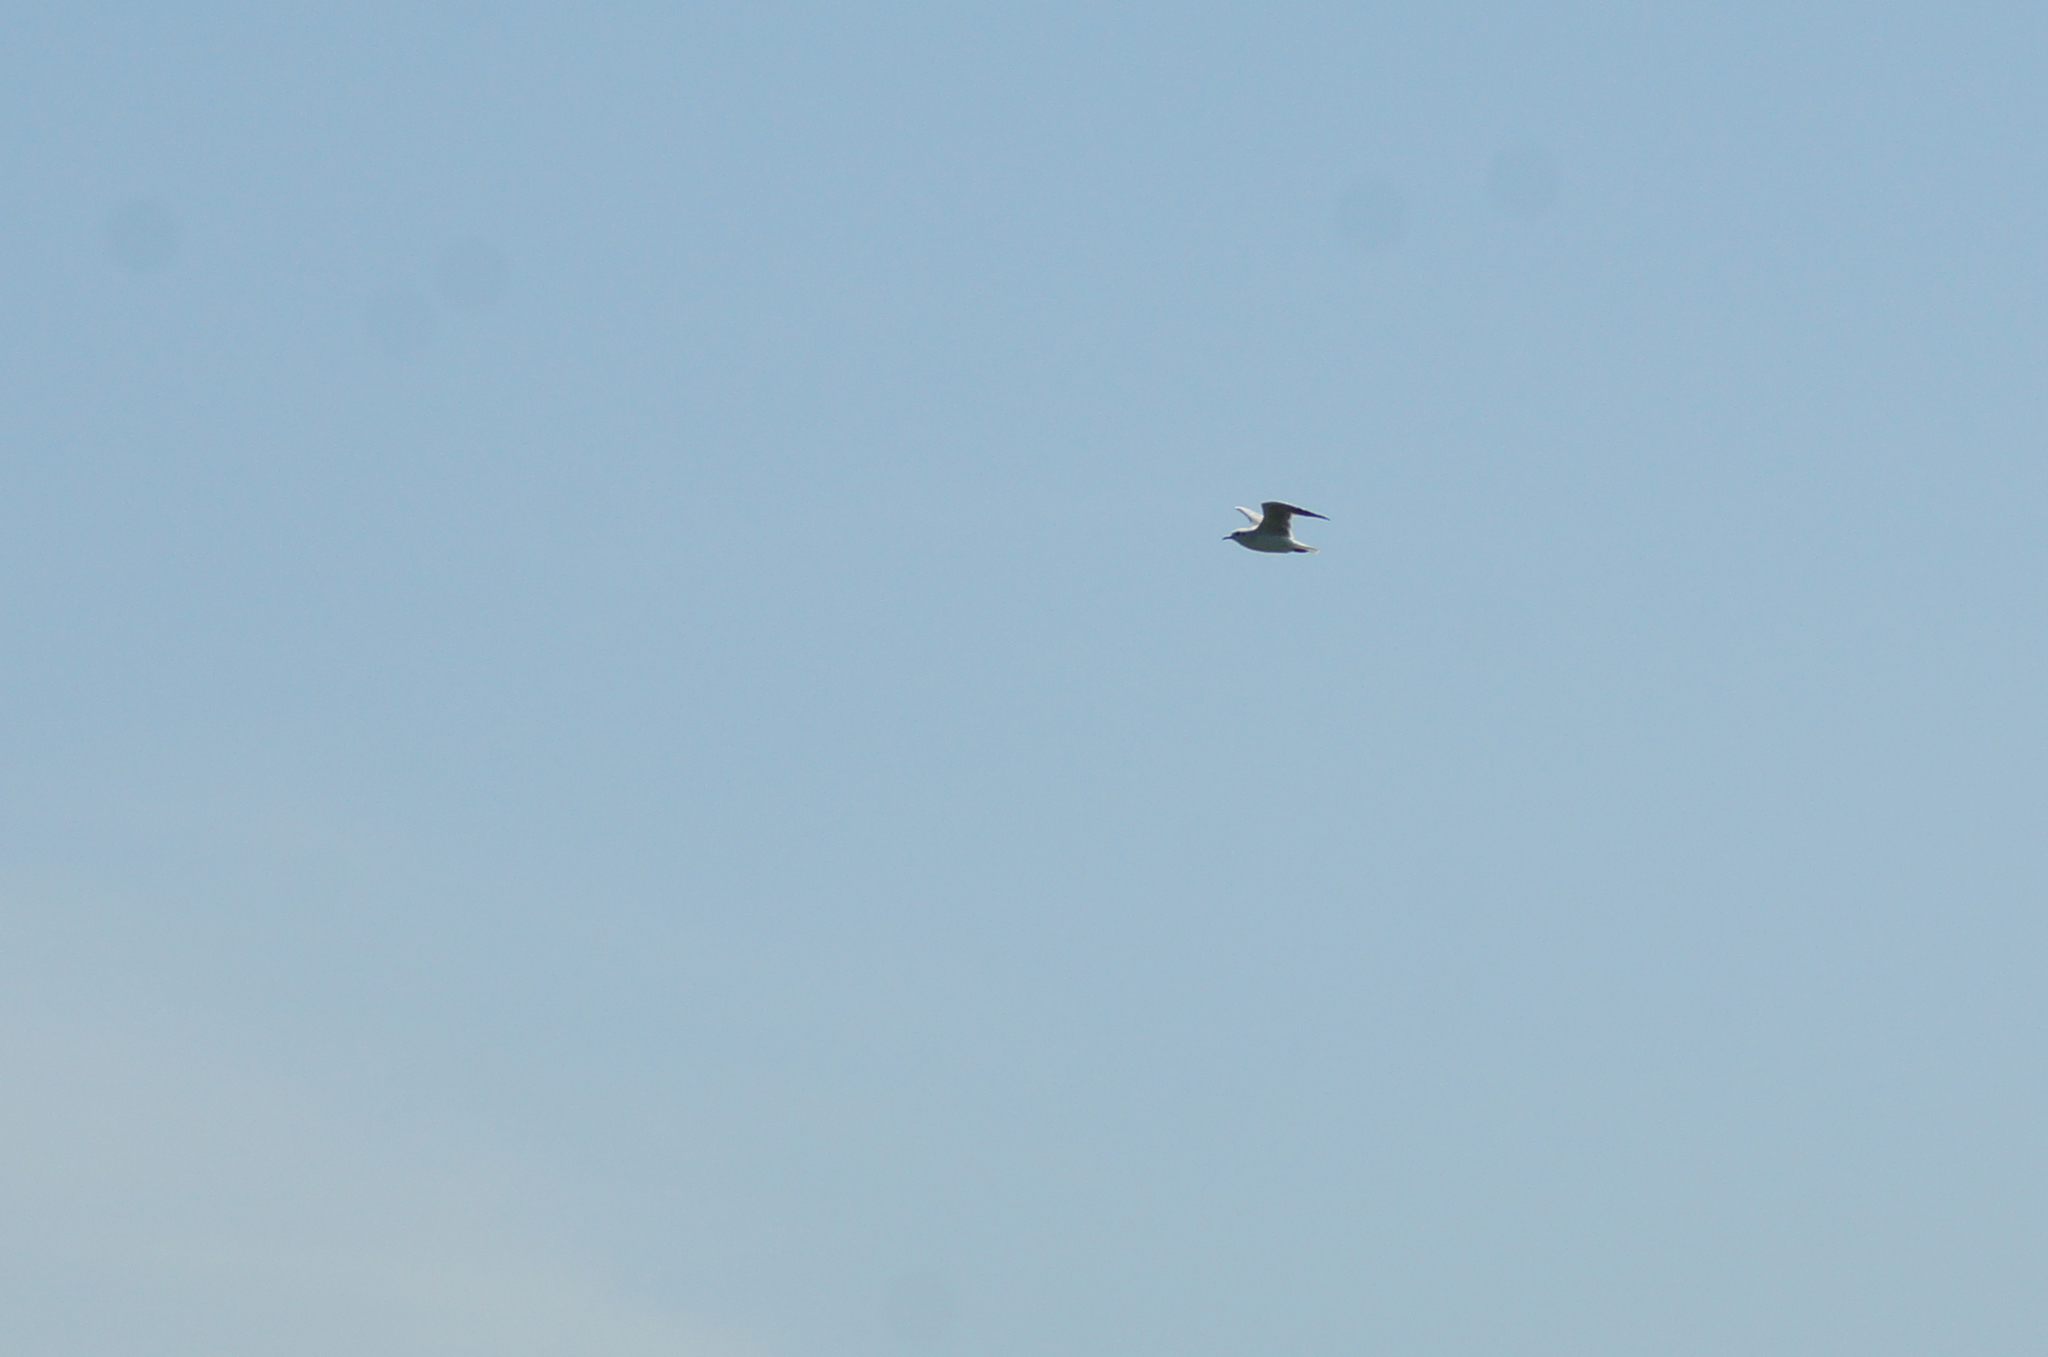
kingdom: Animalia
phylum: Chordata
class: Aves
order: Charadriiformes
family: Laridae
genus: Chroicocephalus
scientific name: Chroicocephalus ridibundus
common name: Black-headed gull
